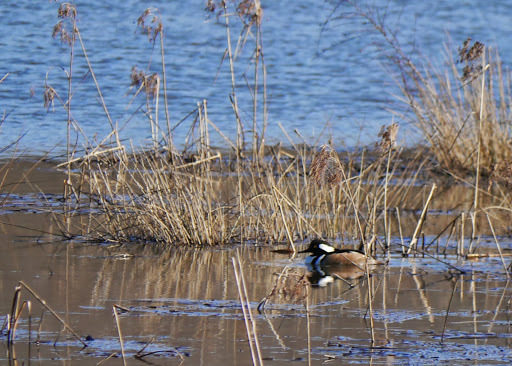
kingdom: Animalia
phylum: Chordata
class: Aves
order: Anseriformes
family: Anatidae
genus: Lophodytes
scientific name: Lophodytes cucullatus
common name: Hooded merganser
